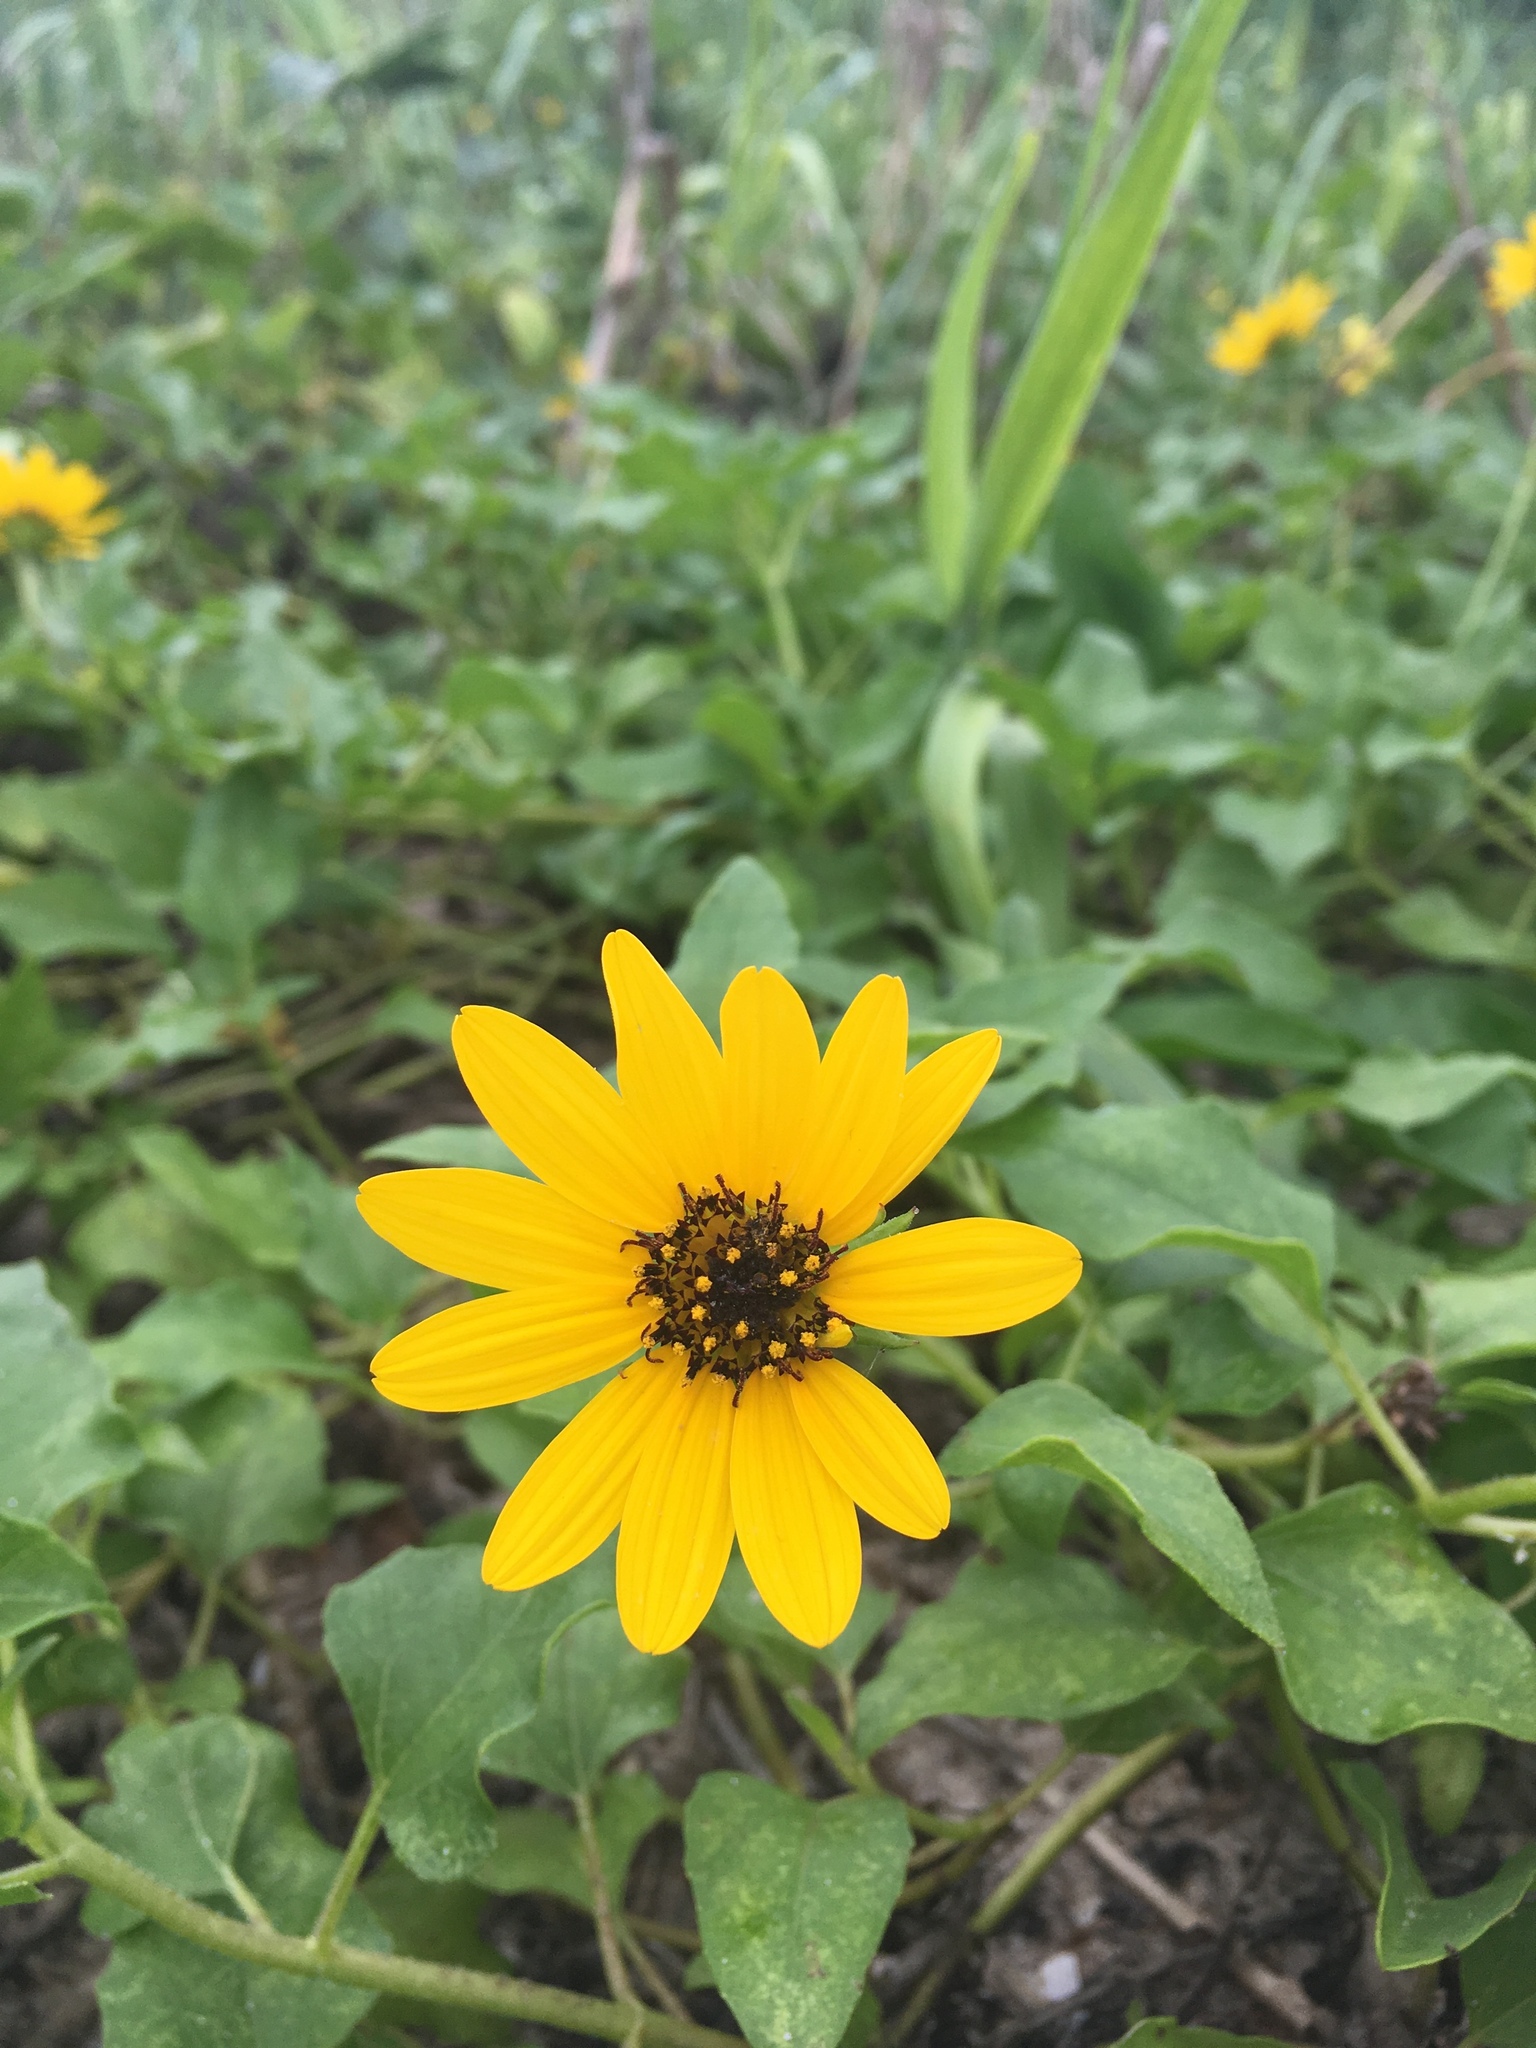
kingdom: Plantae
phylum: Tracheophyta
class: Magnoliopsida
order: Asterales
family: Asteraceae
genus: Helianthus
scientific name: Helianthus debilis
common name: Weak sunflower
